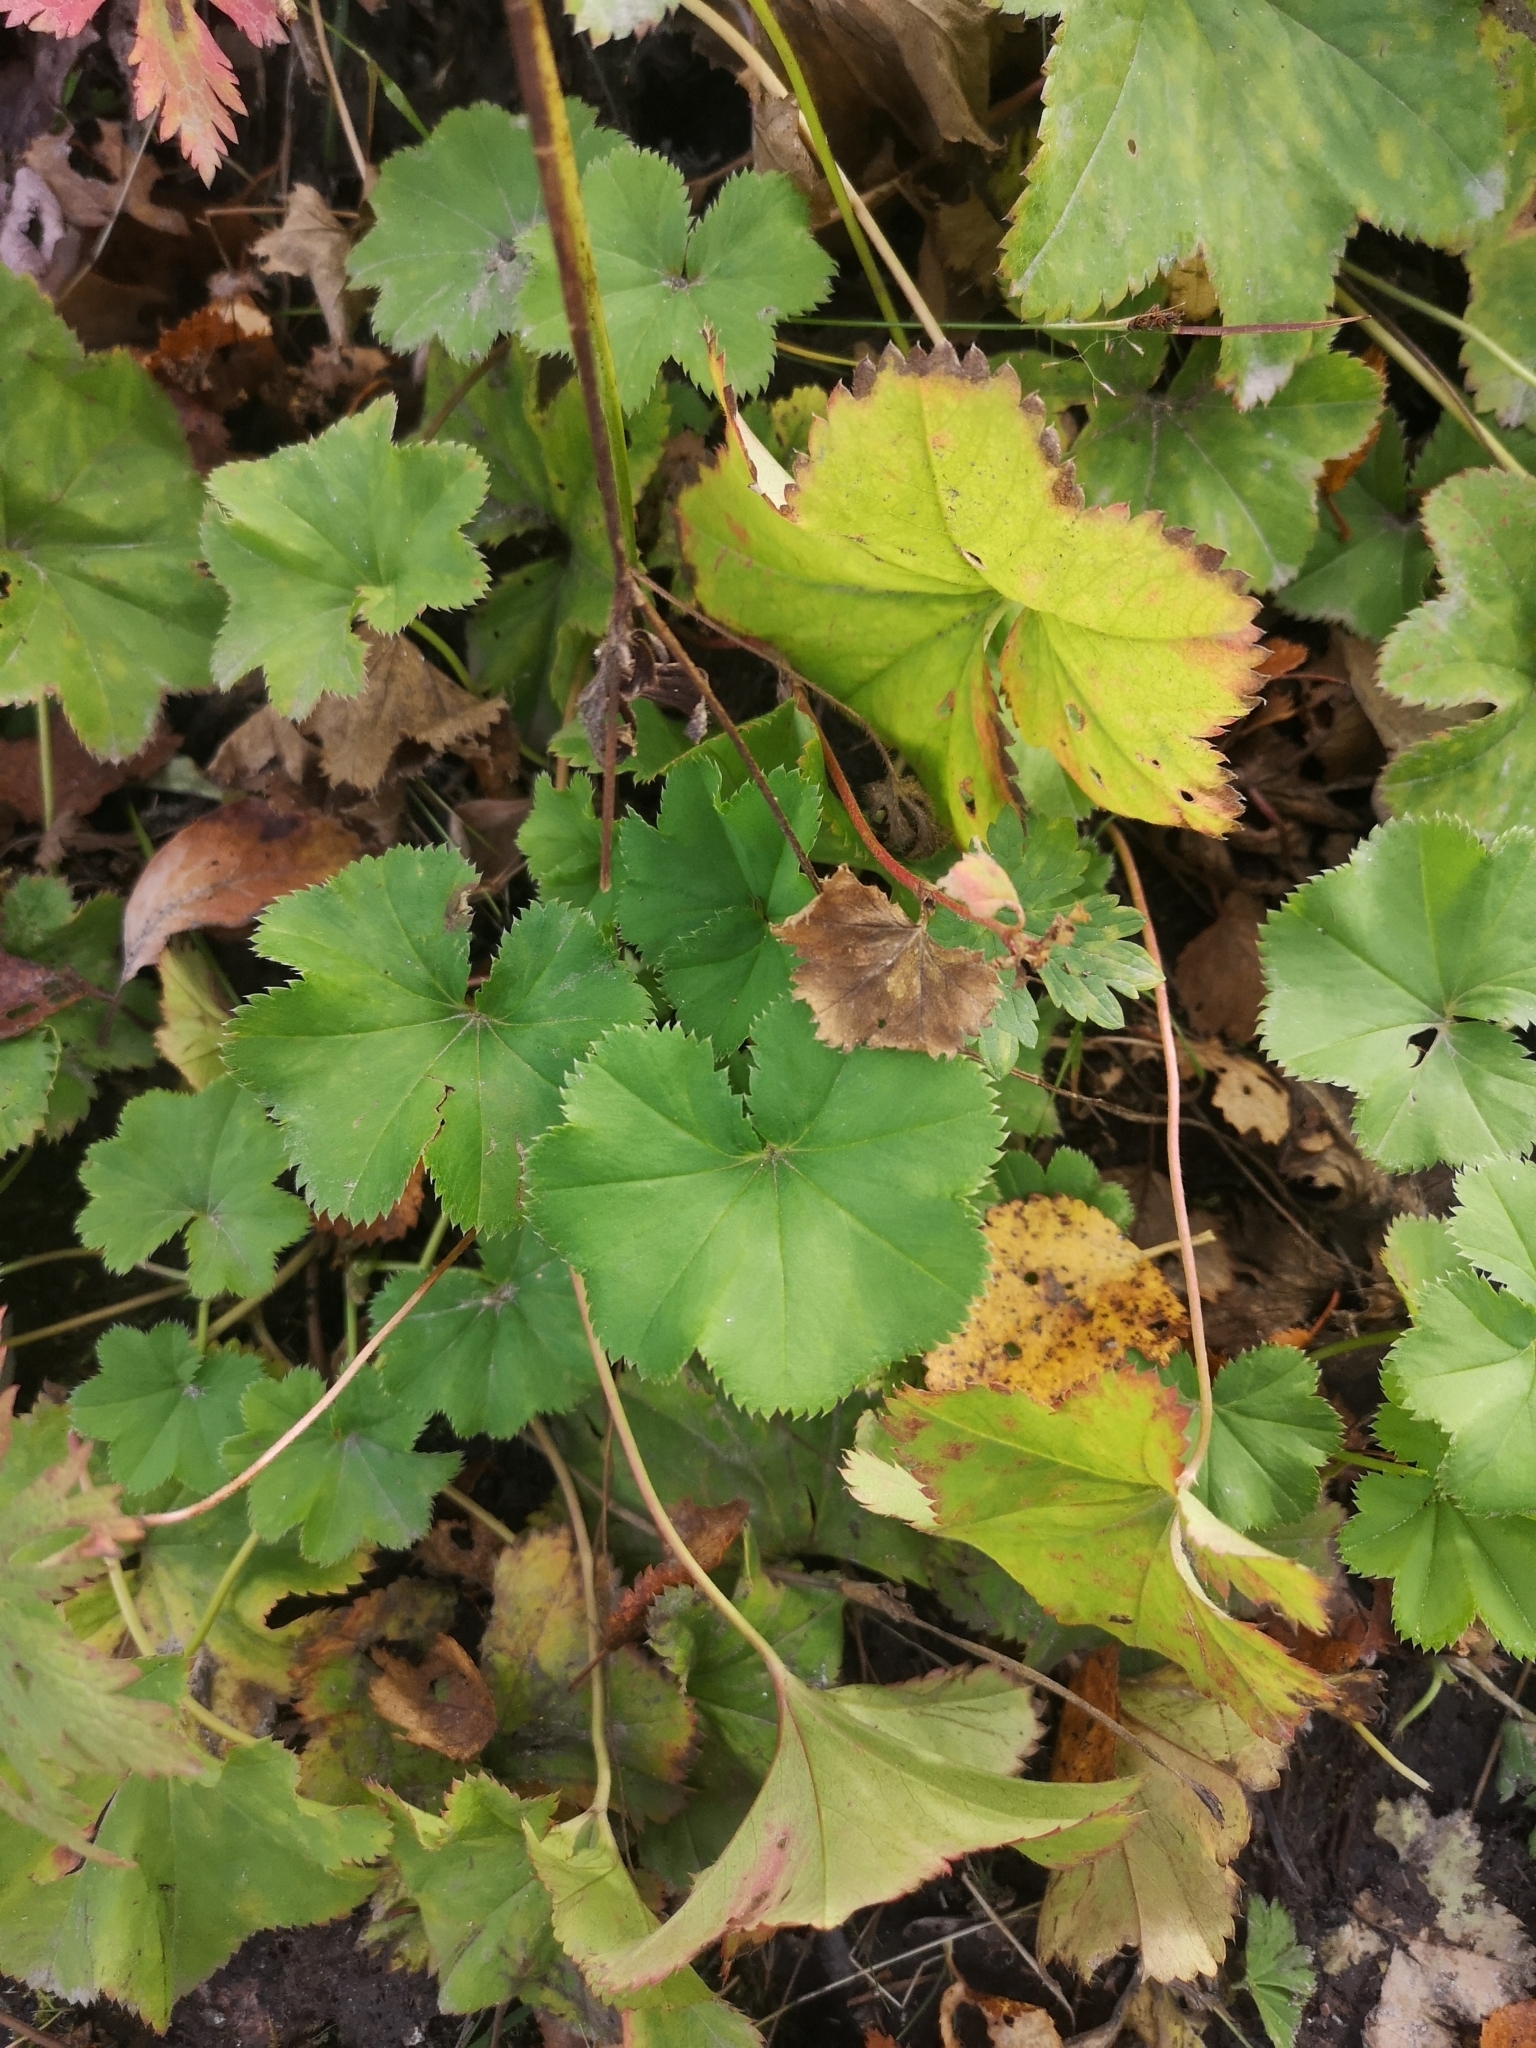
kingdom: Plantae
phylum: Tracheophyta
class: Magnoliopsida
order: Rosales
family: Rosaceae
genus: Alchemilla
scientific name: Alchemilla vulgaris
